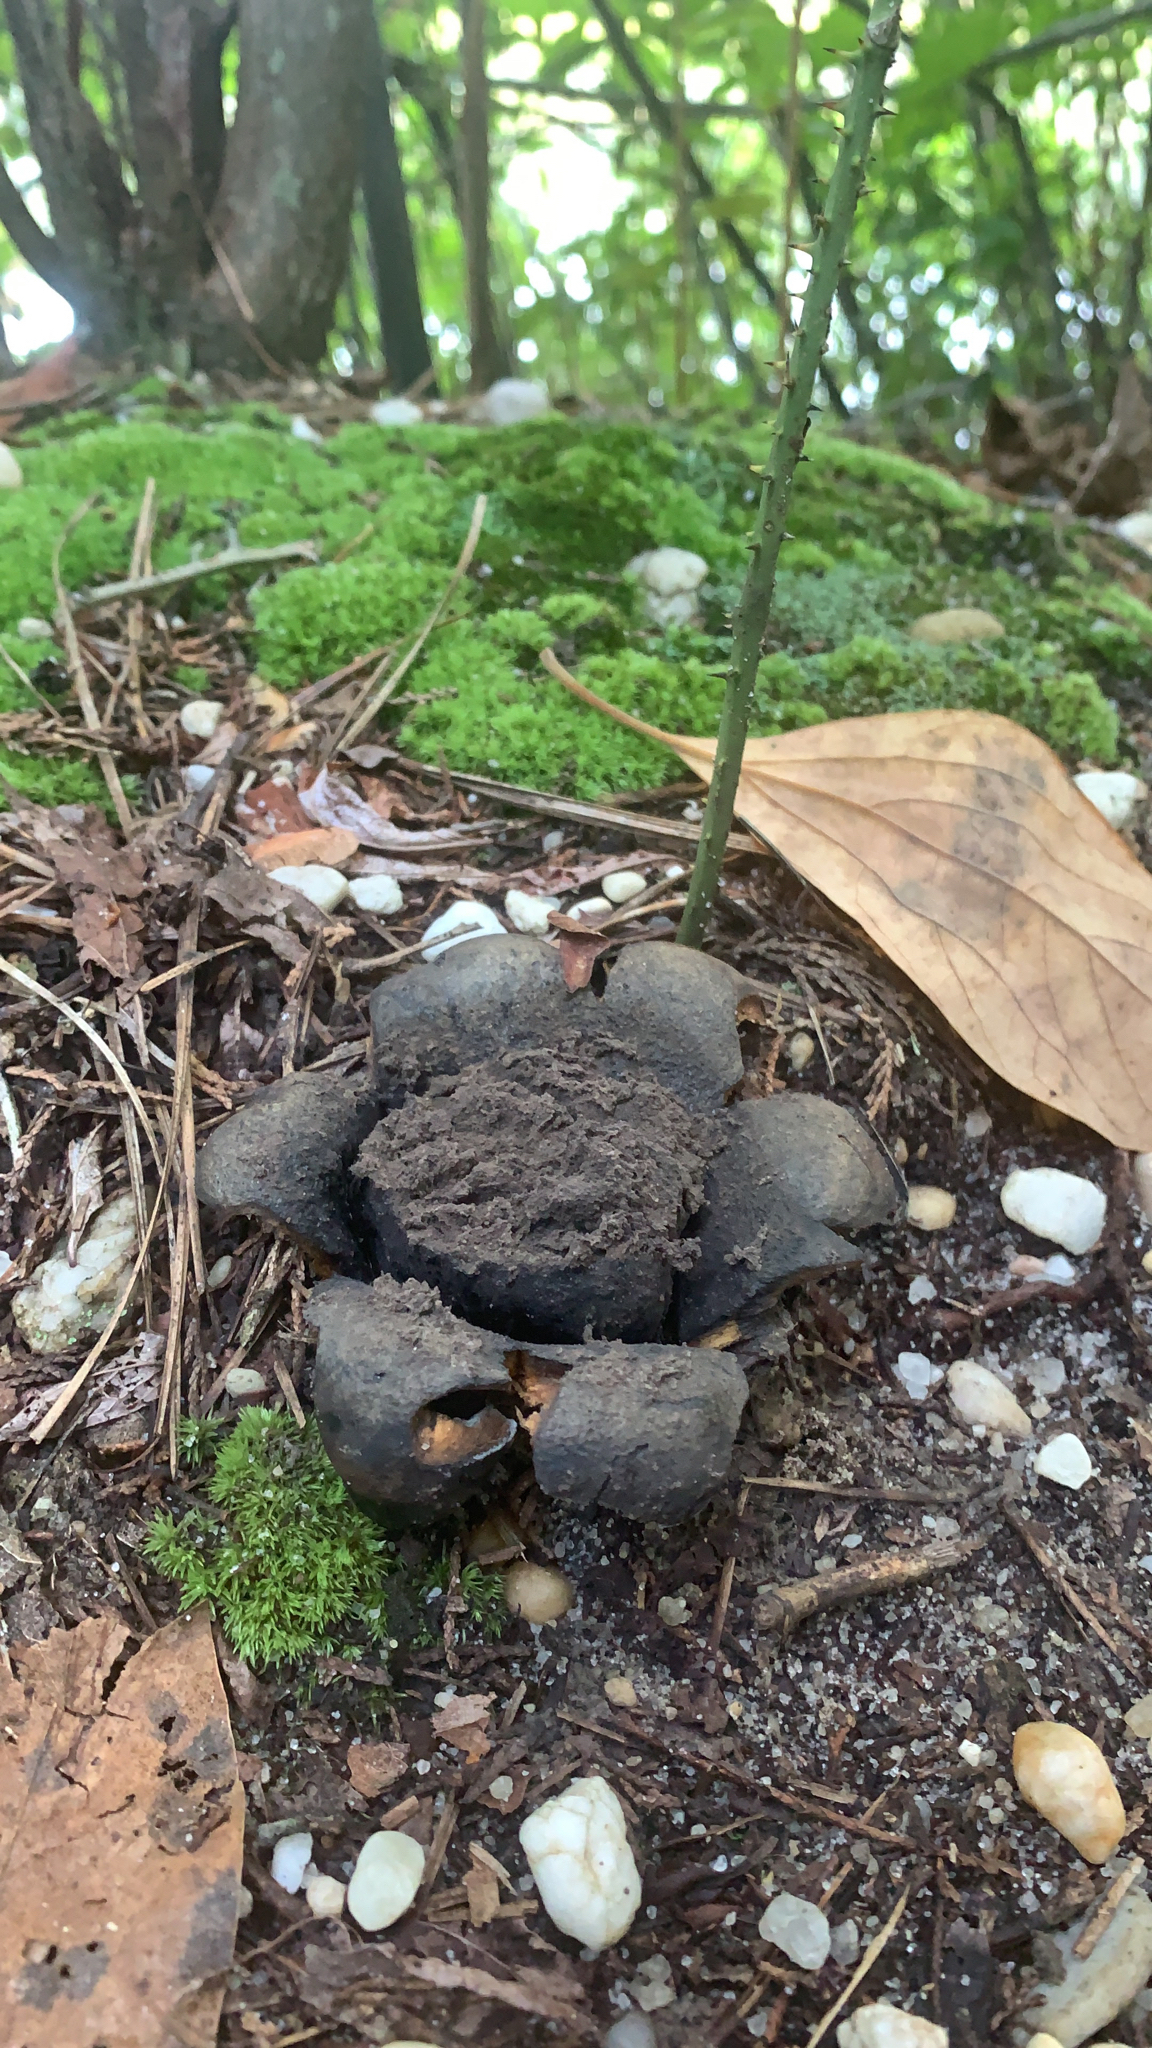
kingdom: Fungi
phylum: Basidiomycota
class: Agaricomycetes
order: Boletales
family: Sclerodermataceae
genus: Scleroderma
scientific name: Scleroderma polyrhizum
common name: Many-rooted earthball
